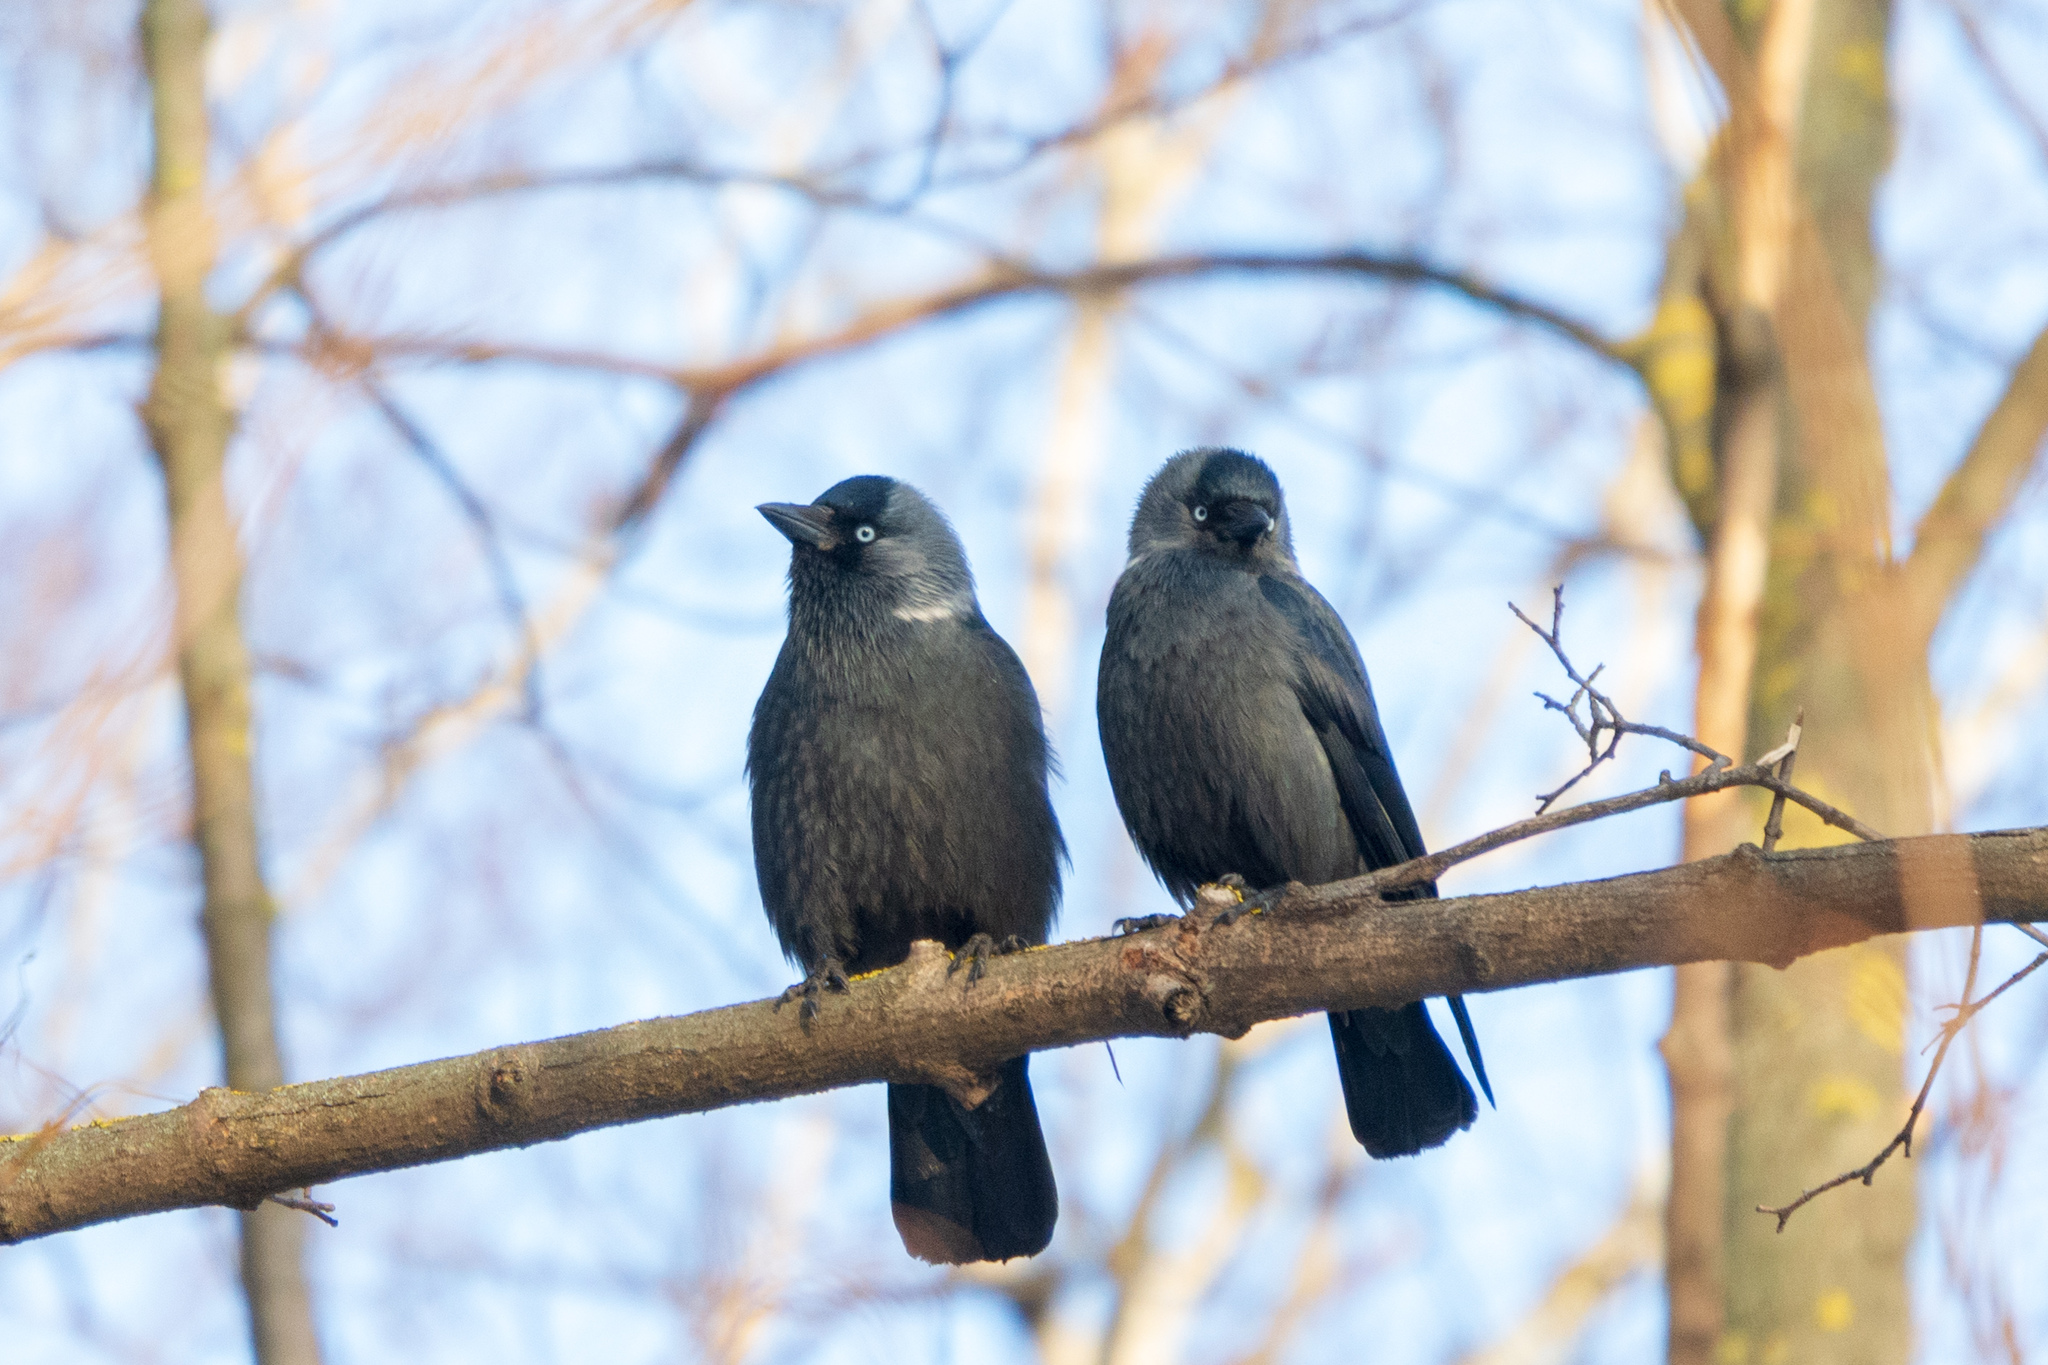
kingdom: Animalia
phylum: Chordata
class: Aves
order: Passeriformes
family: Corvidae
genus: Coloeus
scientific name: Coloeus monedula
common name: Western jackdaw
